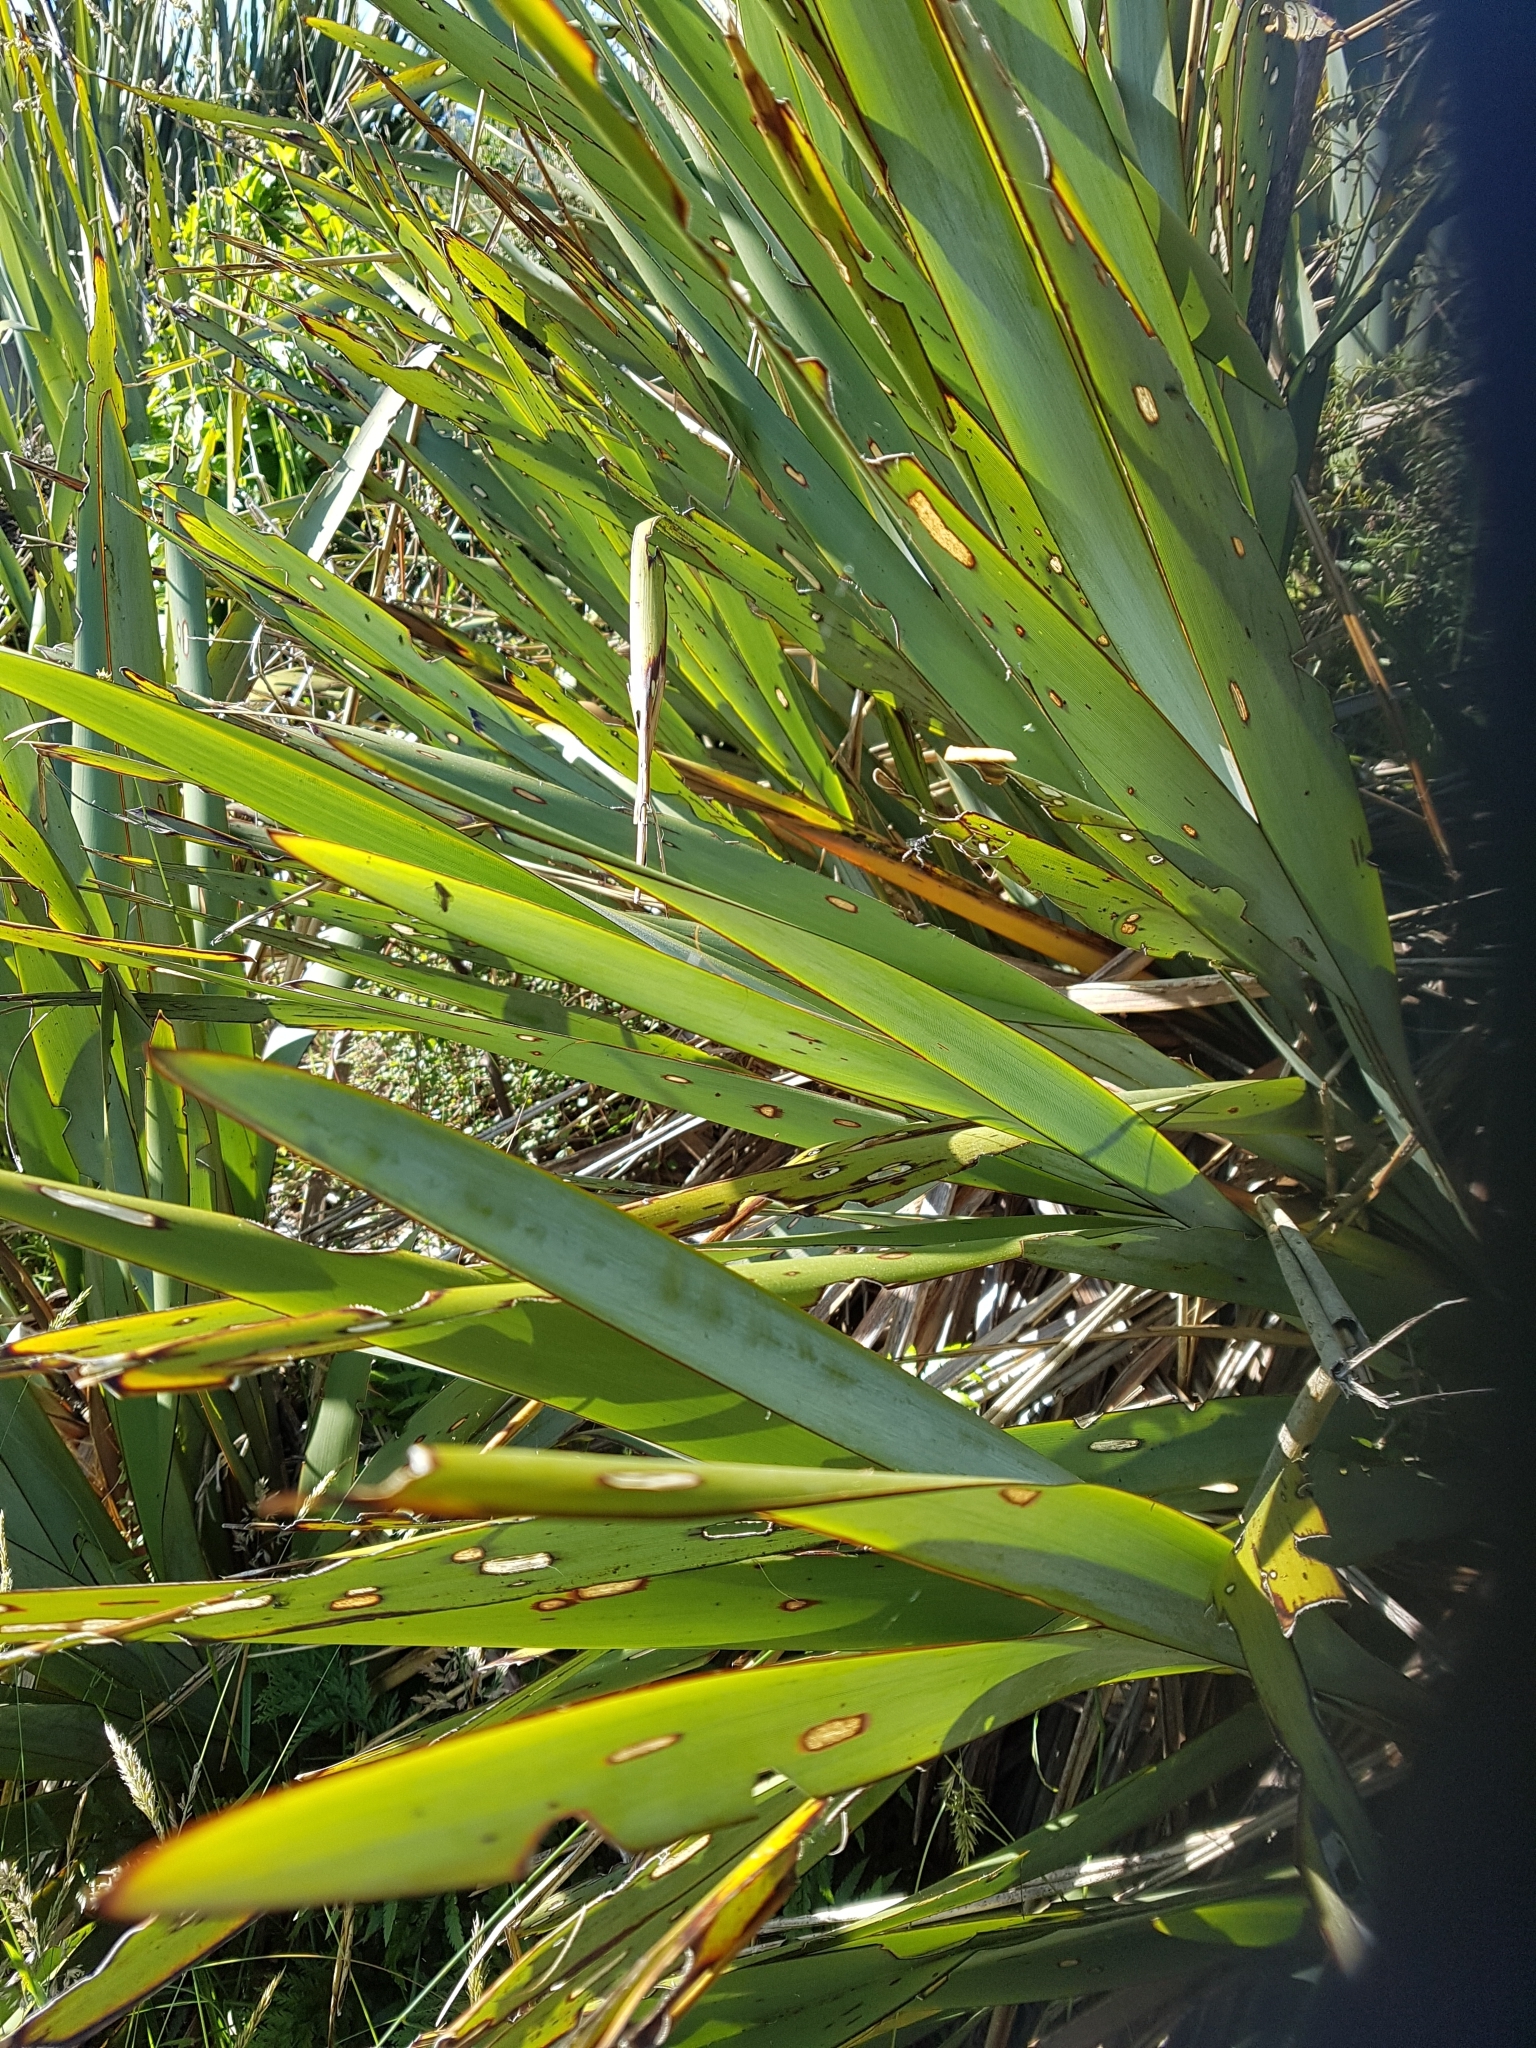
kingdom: Plantae
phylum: Tracheophyta
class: Liliopsida
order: Asparagales
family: Asphodelaceae
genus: Phormium
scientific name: Phormium tenax
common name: New zealand flax
